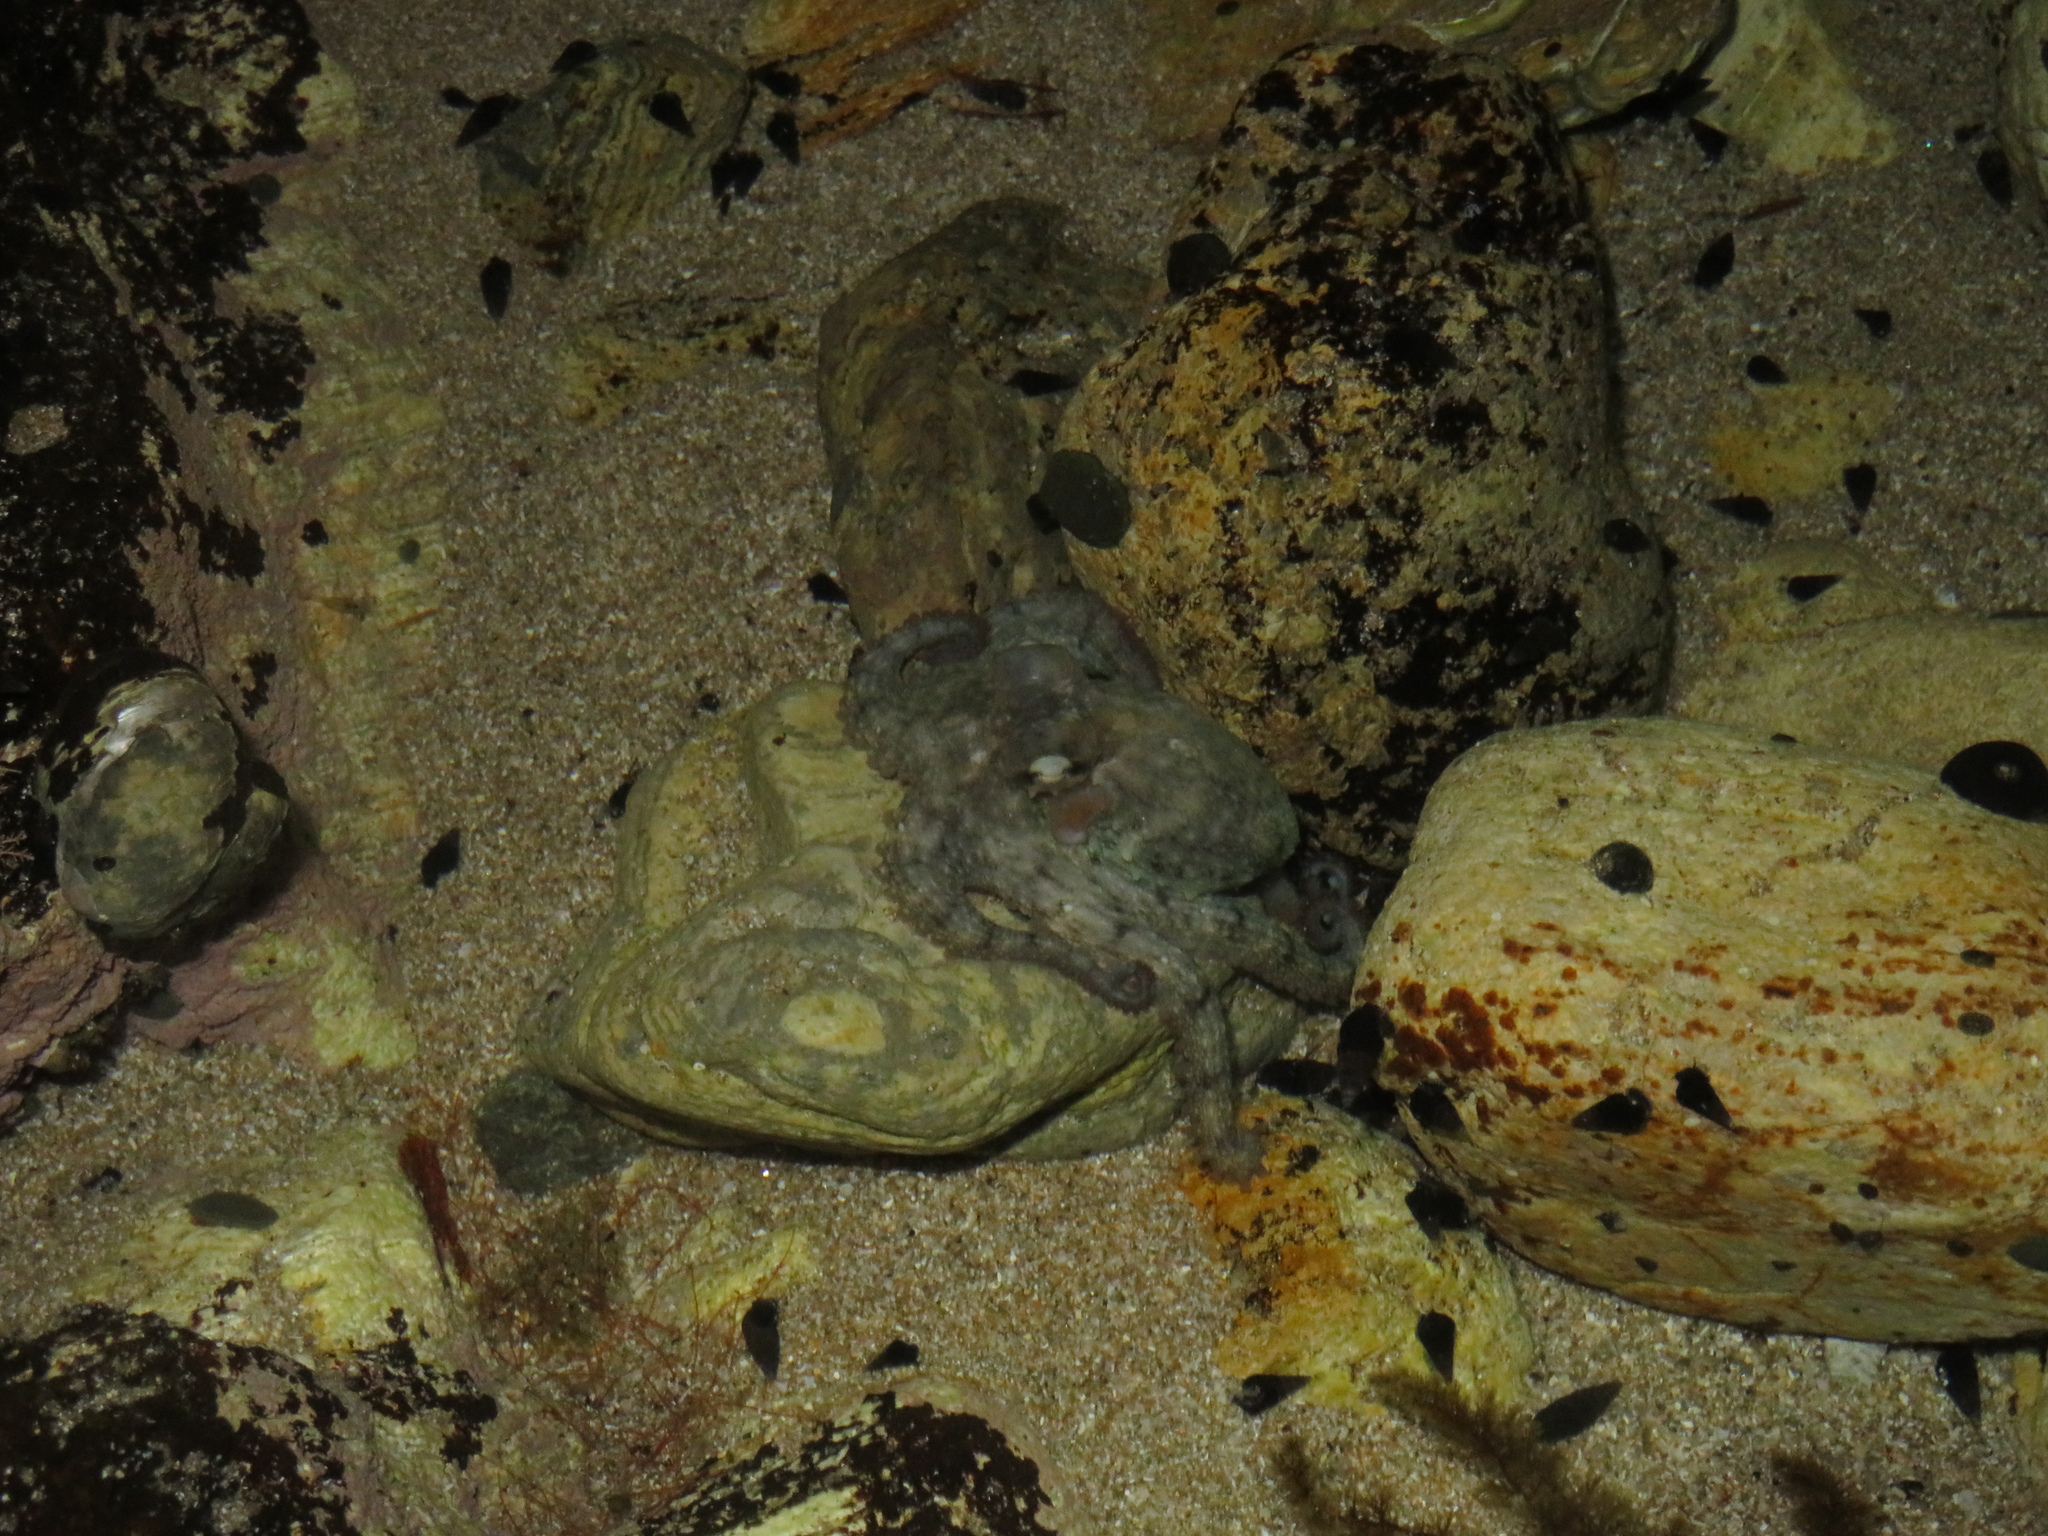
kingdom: Animalia
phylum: Mollusca
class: Cephalopoda
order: Octopoda
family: Octopodidae
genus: Octopus
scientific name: Octopus tetricus
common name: Sydney octopus
